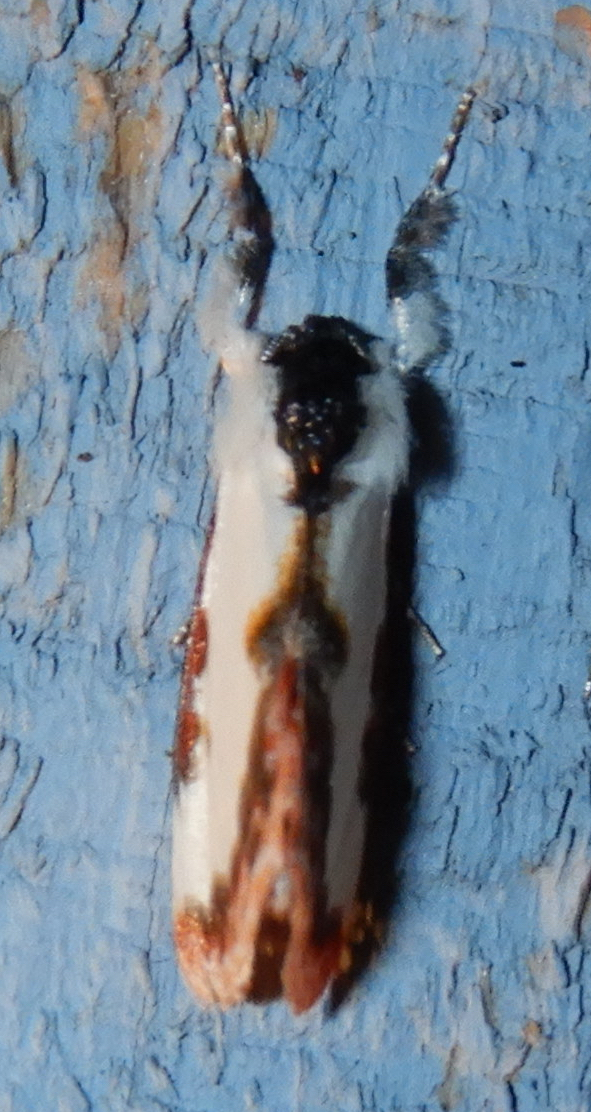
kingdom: Animalia
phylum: Arthropoda
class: Insecta
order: Lepidoptera
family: Noctuidae
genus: Eudryas
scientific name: Eudryas unio
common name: Pearly wood-nymph
